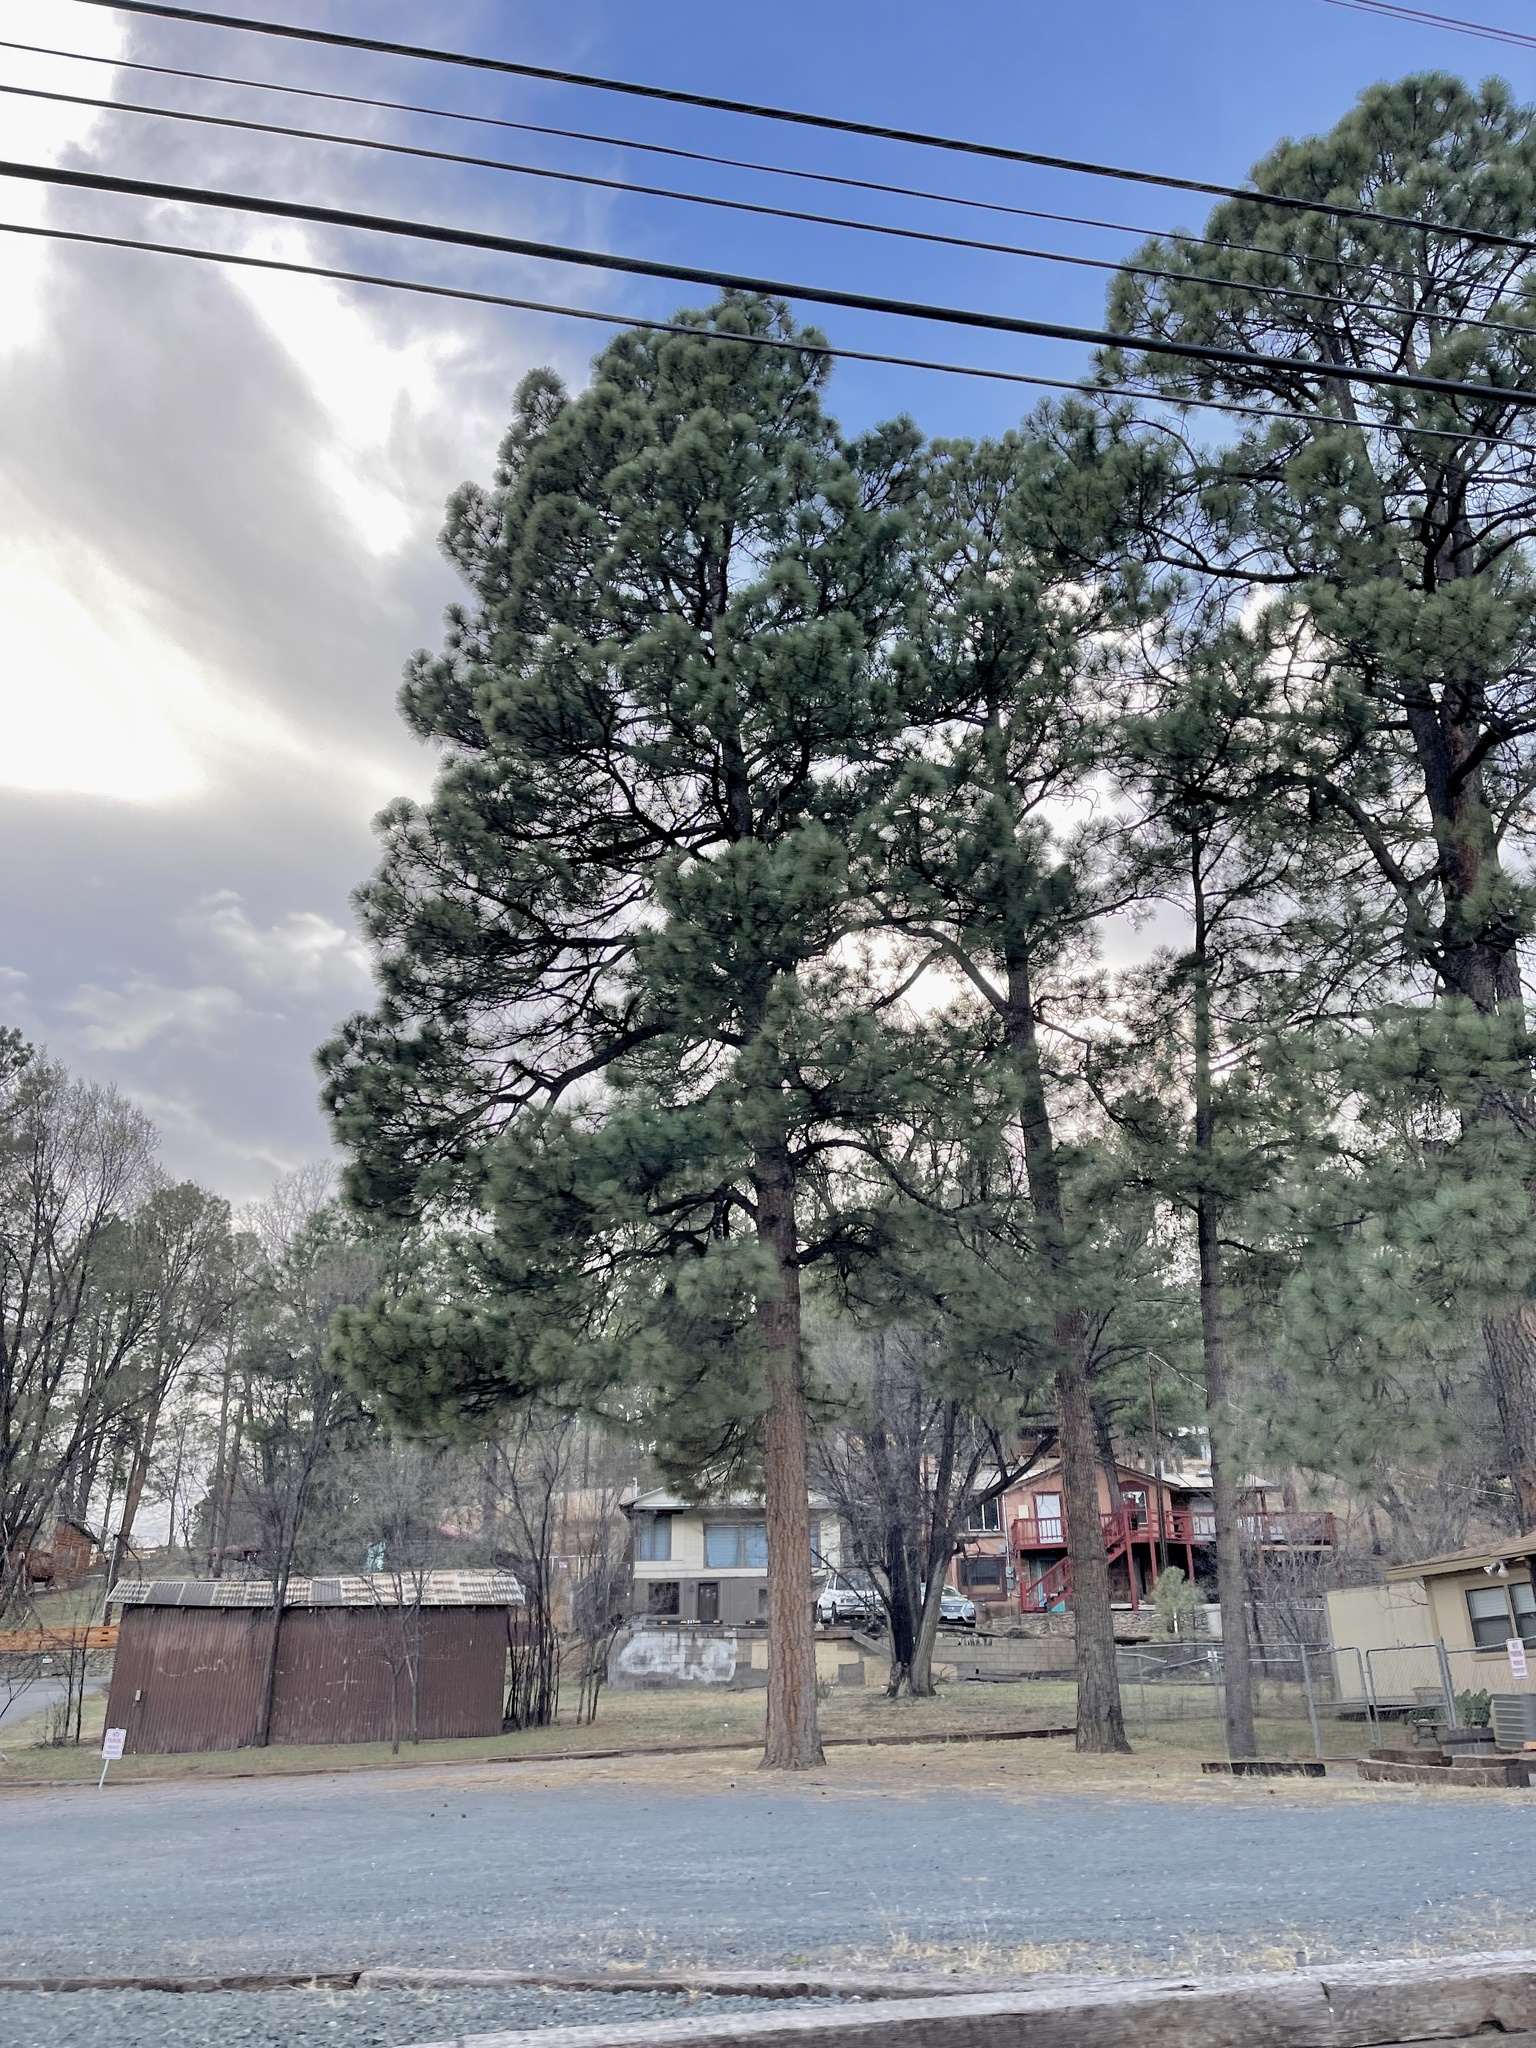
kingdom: Plantae
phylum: Tracheophyta
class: Pinopsida
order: Pinales
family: Pinaceae
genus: Pinus
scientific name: Pinus ponderosa
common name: Western yellow-pine
